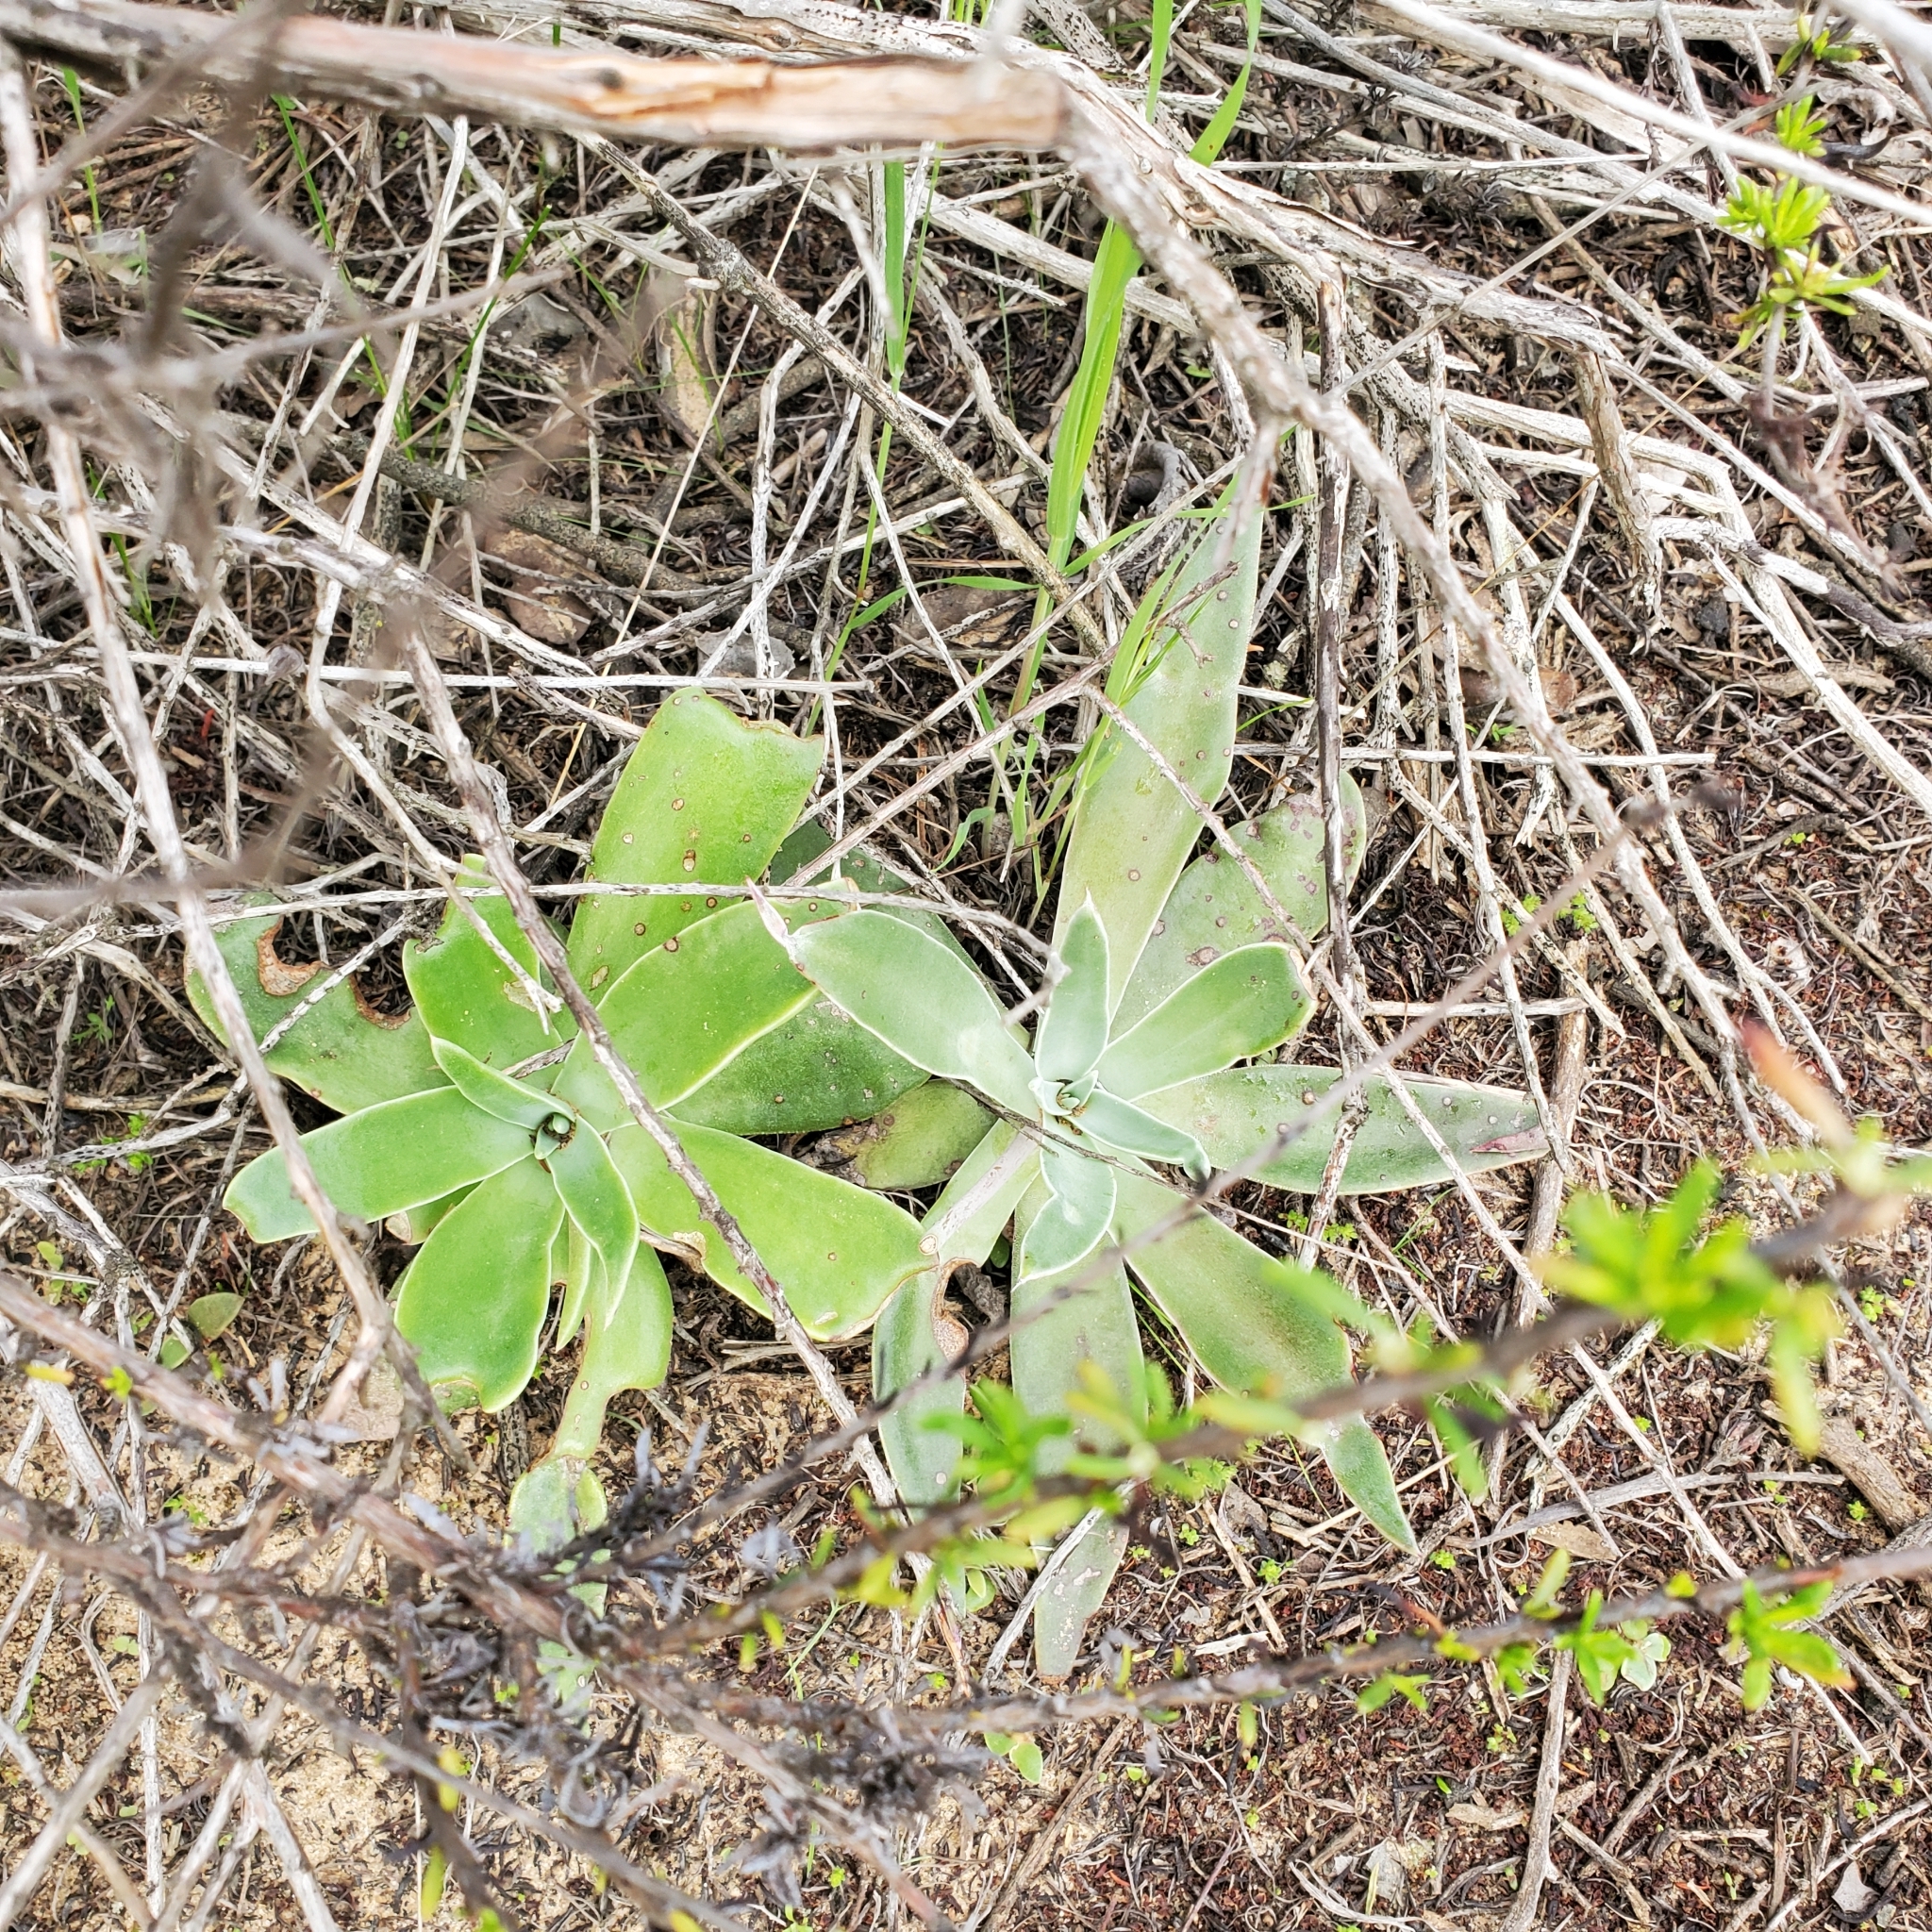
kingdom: Plantae
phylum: Tracheophyta
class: Magnoliopsida
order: Saxifragales
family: Crassulaceae
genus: Dudleya
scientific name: Dudleya lanceolata
